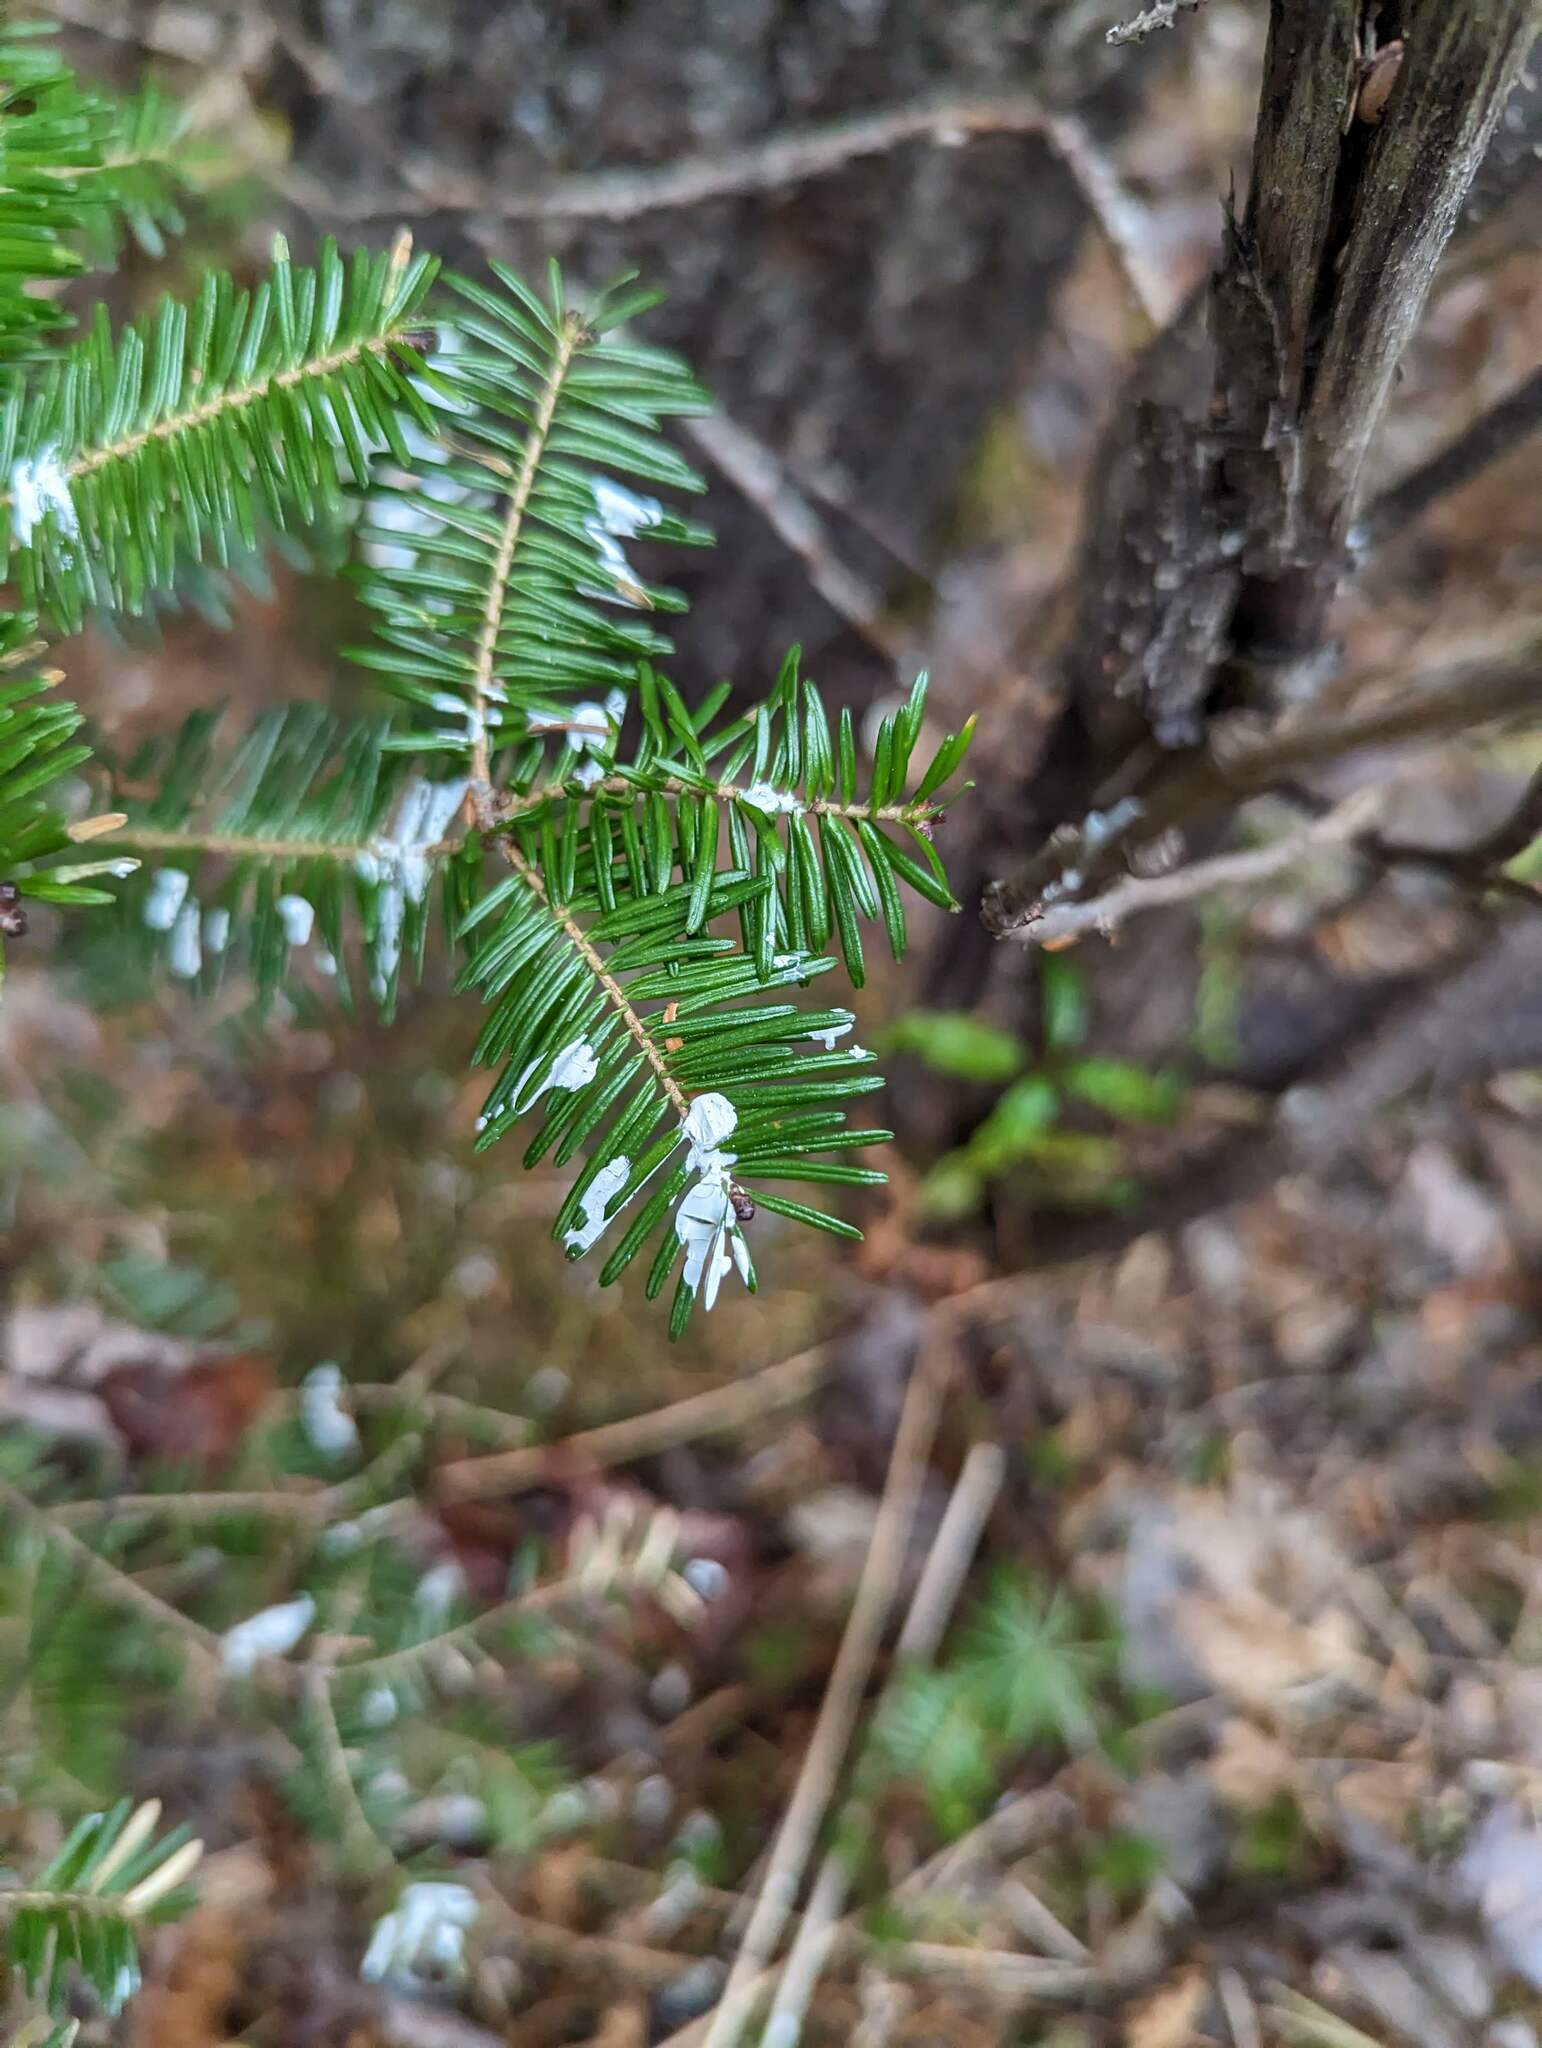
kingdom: Plantae
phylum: Tracheophyta
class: Pinopsida
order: Pinales
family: Pinaceae
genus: Abies
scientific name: Abies balsamea
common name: Balsam fir
